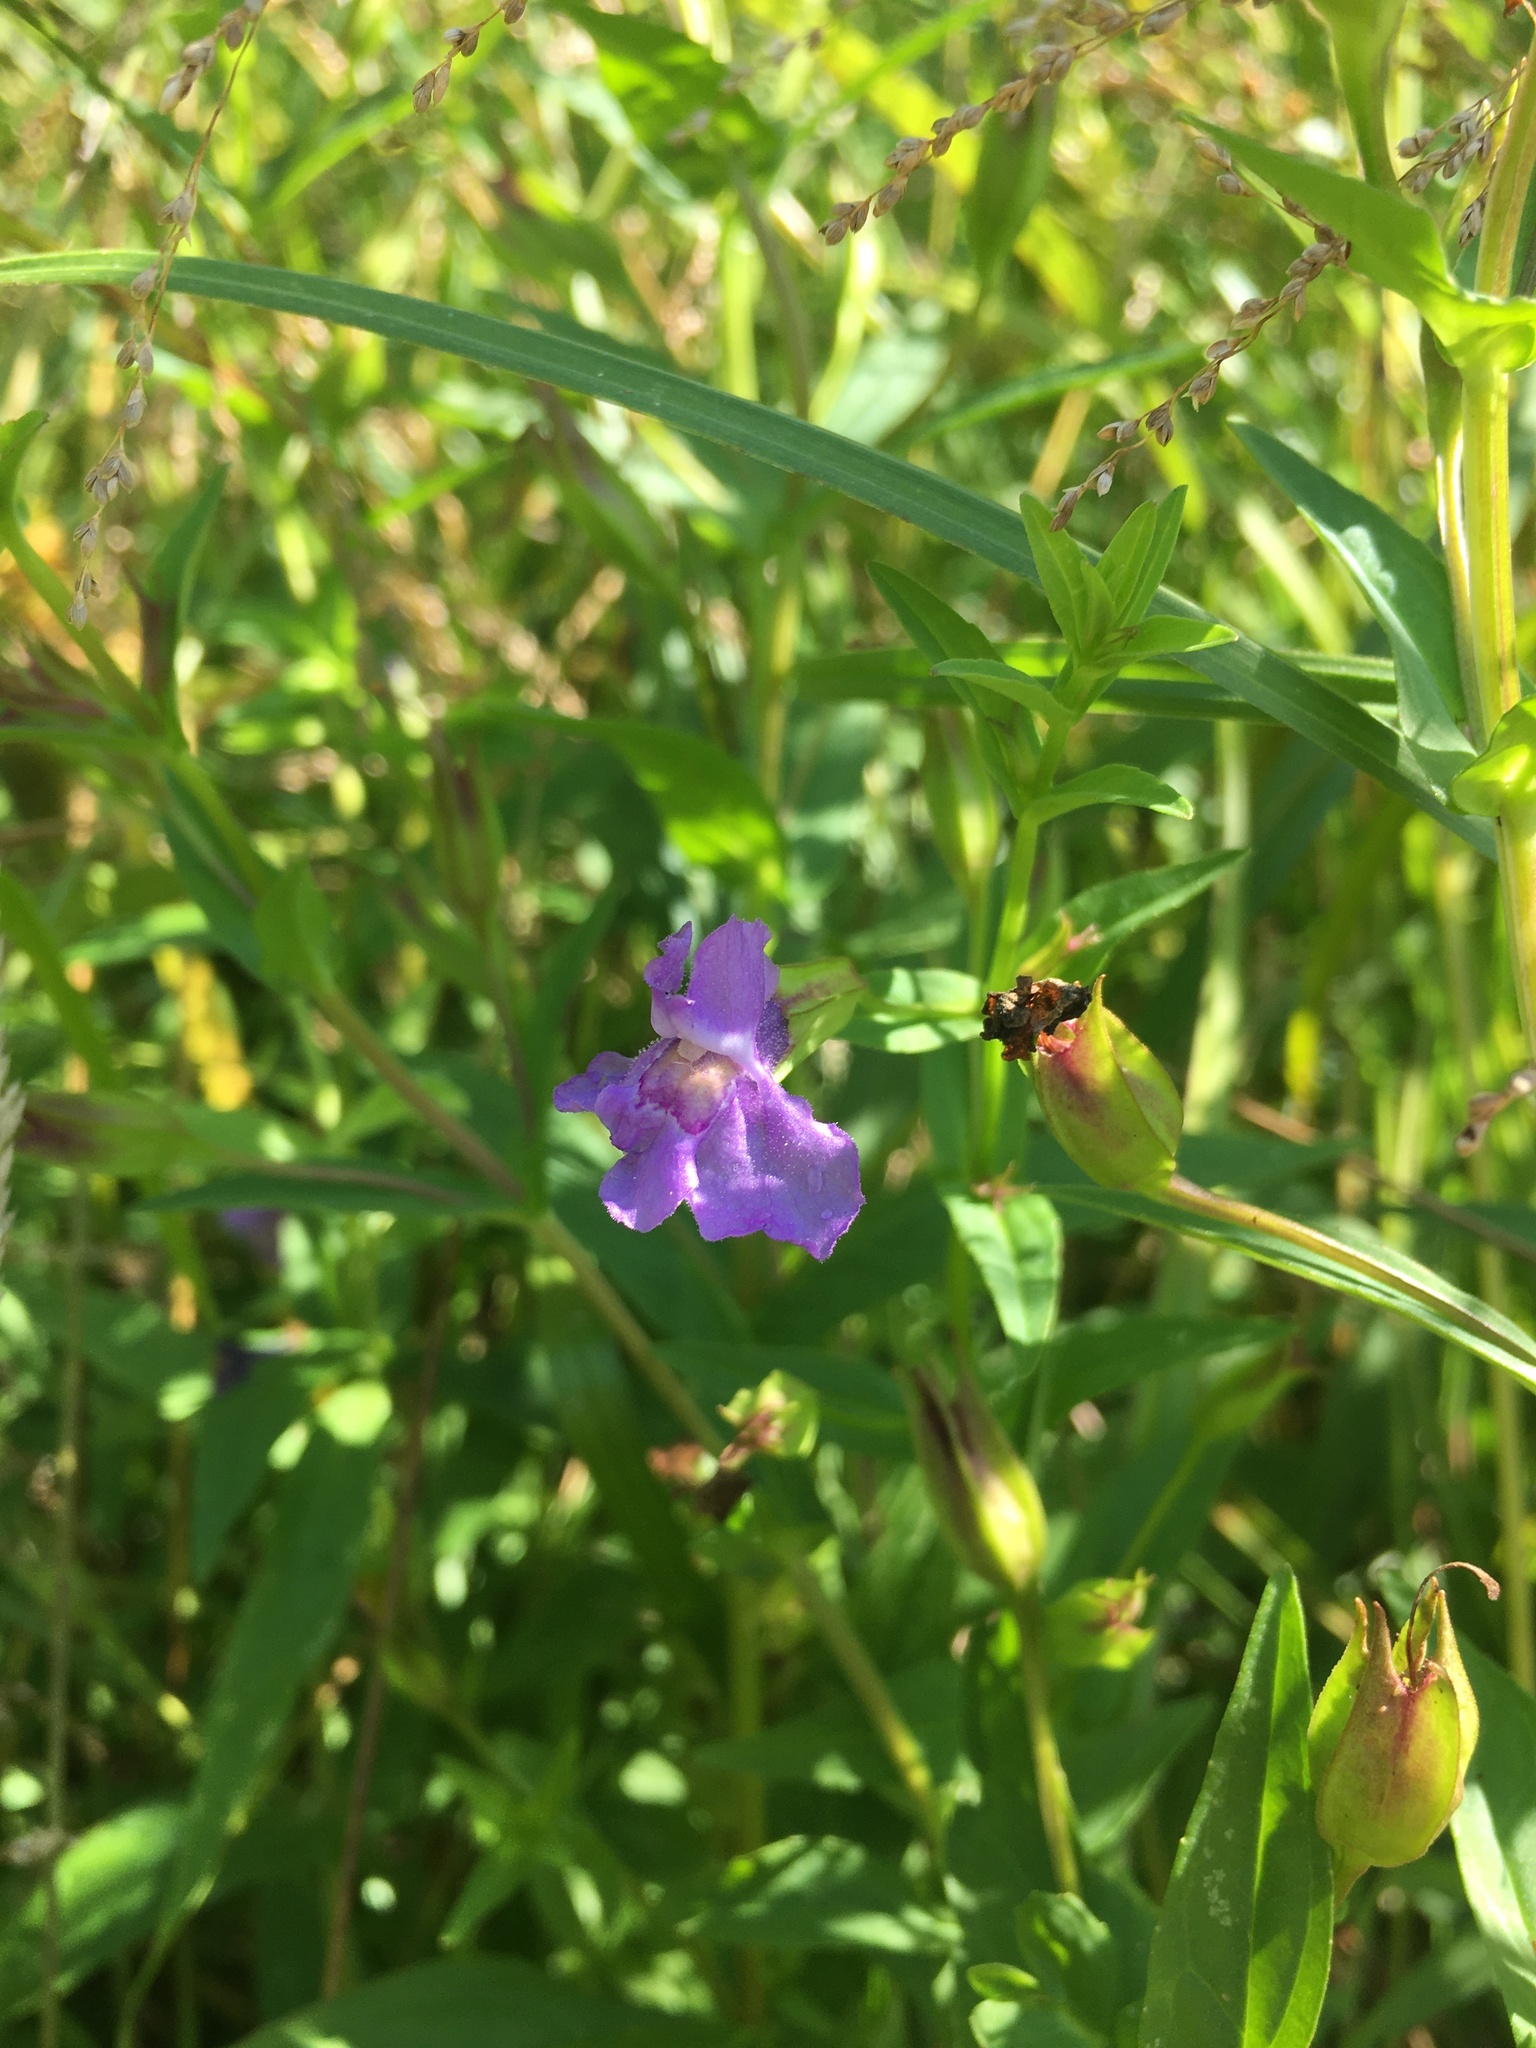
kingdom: Plantae
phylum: Tracheophyta
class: Magnoliopsida
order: Lamiales
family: Phrymaceae
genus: Mimulus
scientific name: Mimulus ringens
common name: Allegheny monkeyflower
